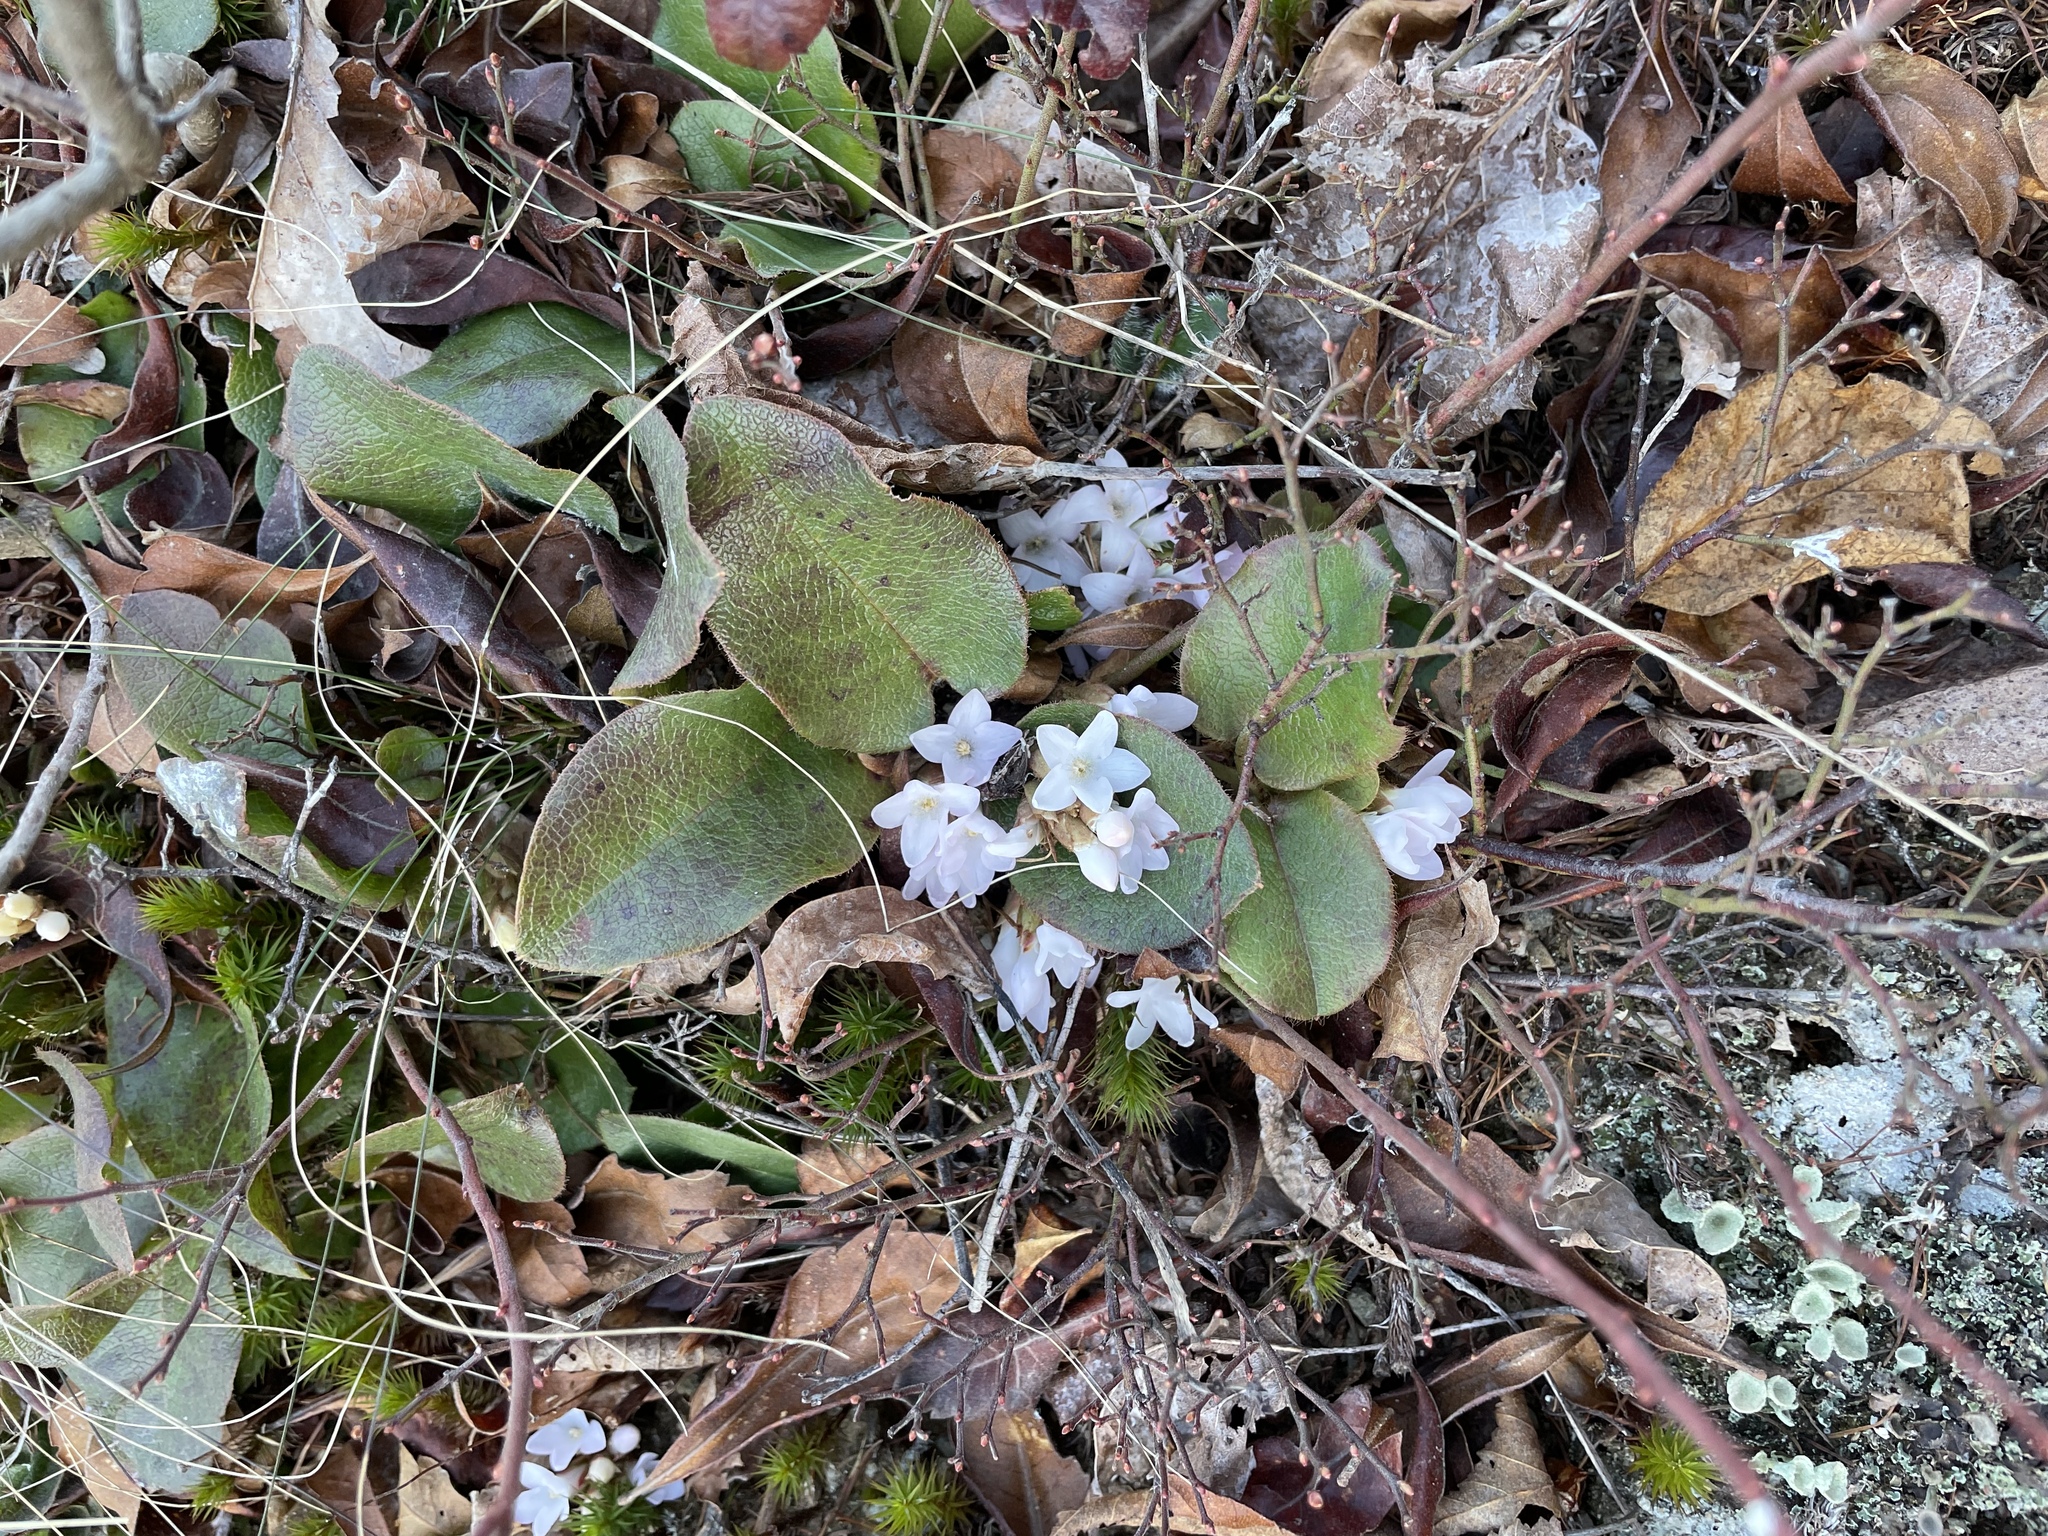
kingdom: Plantae
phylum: Tracheophyta
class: Magnoliopsida
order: Ericales
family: Ericaceae
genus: Epigaea
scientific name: Epigaea repens
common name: Gravelroot
